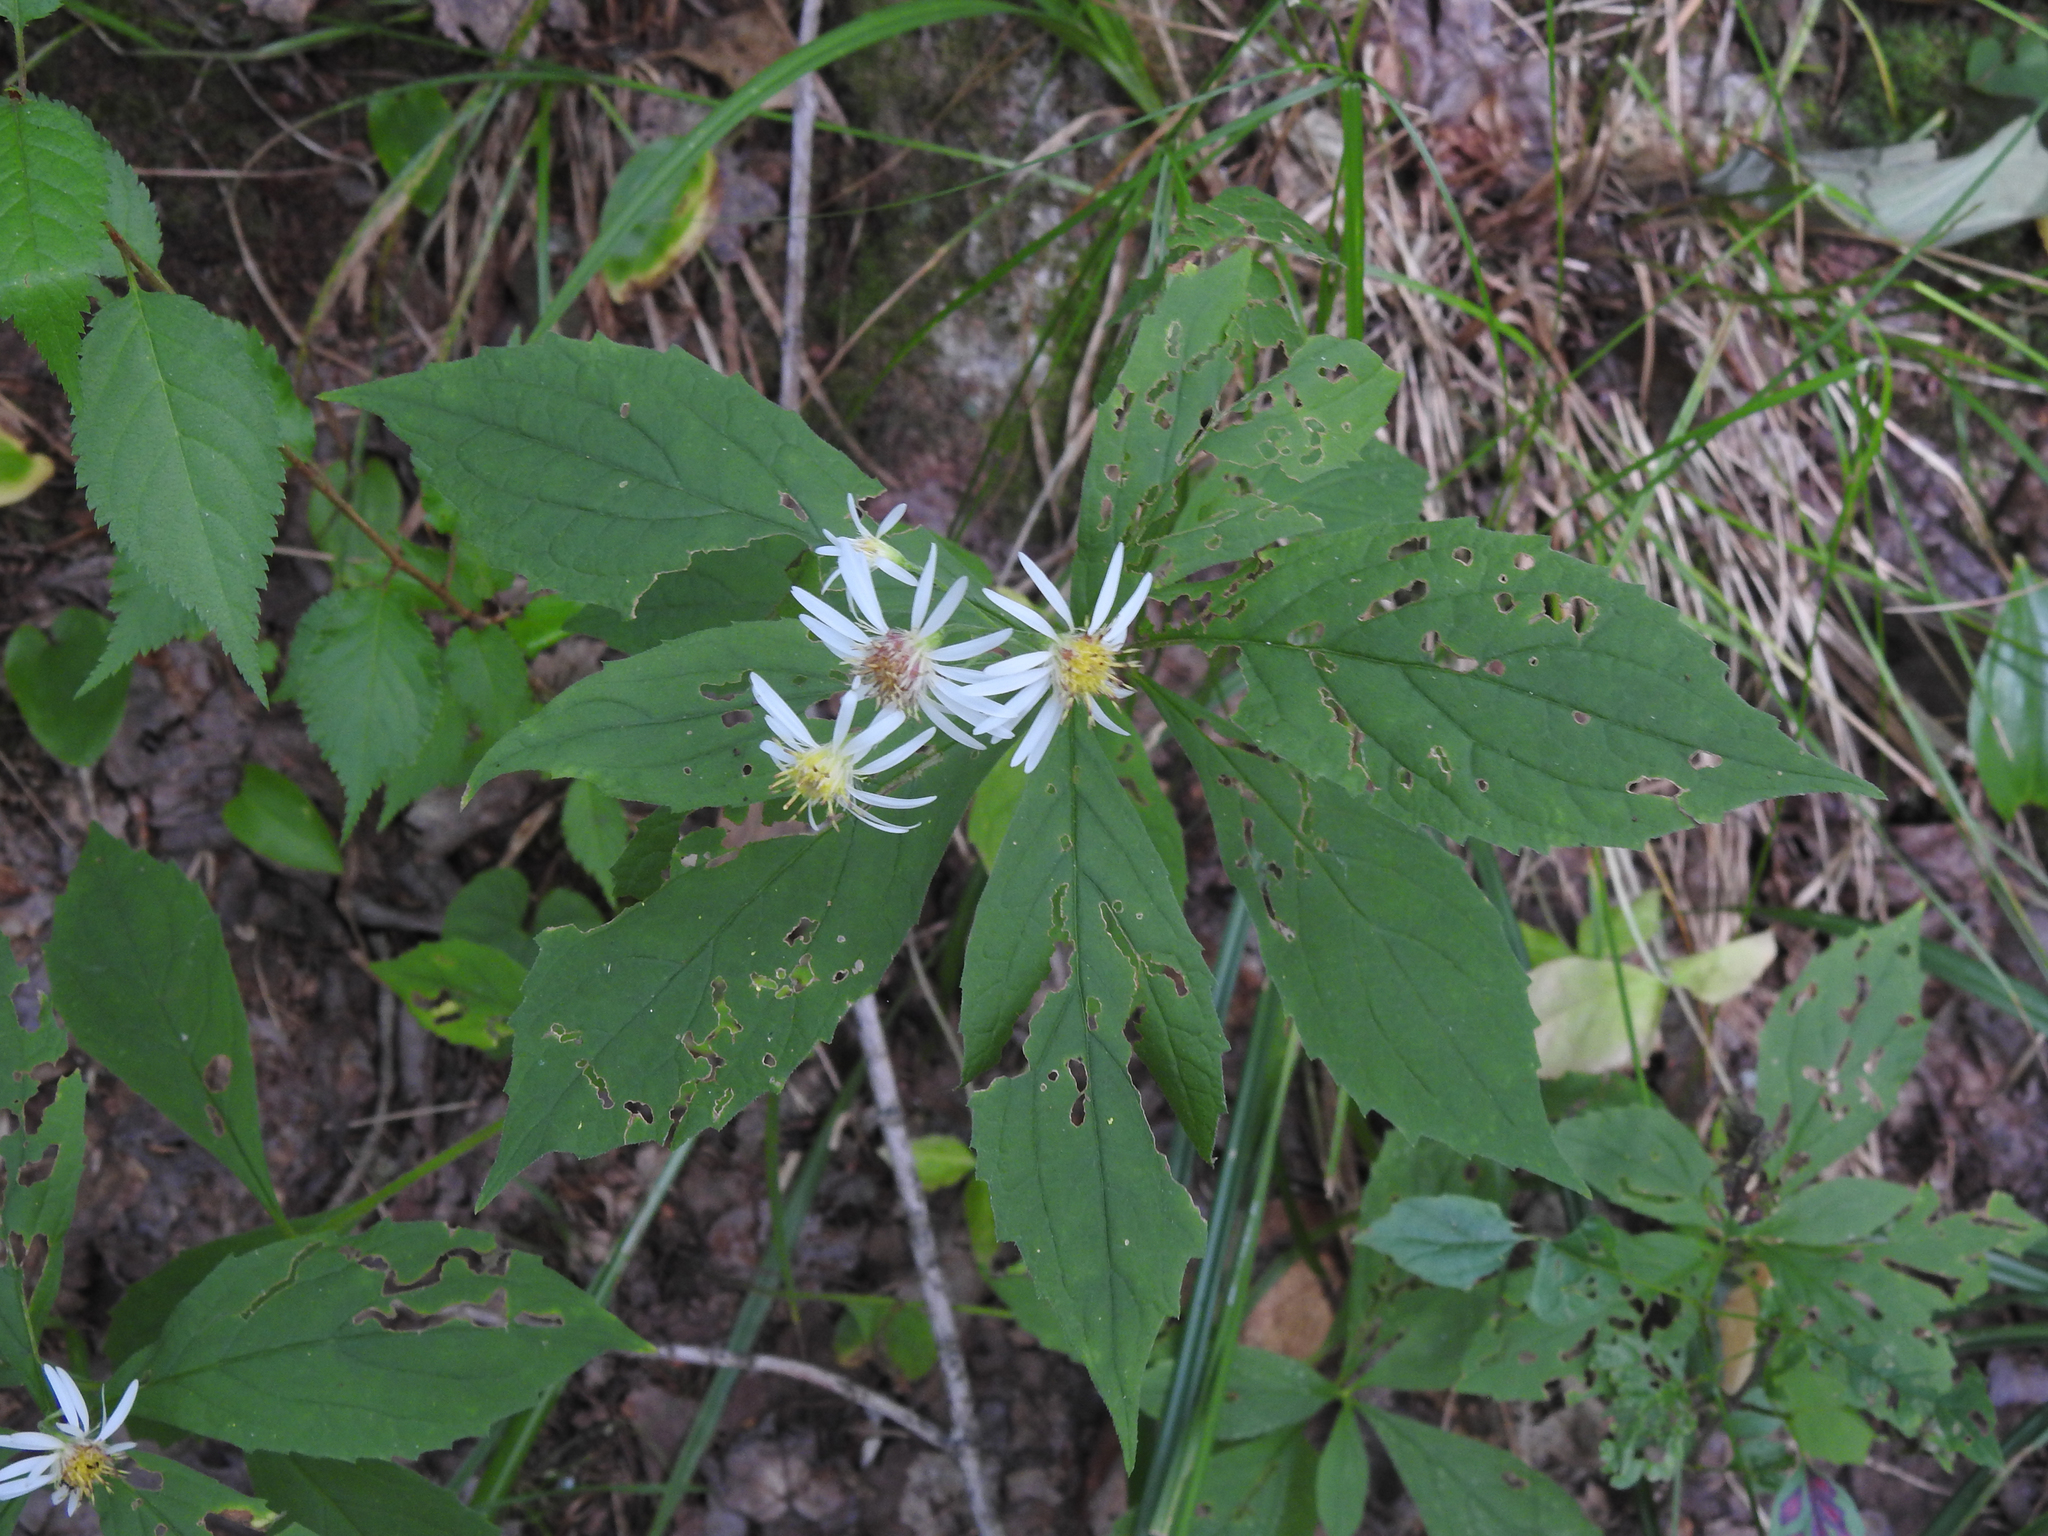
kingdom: Plantae
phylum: Tracheophyta
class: Magnoliopsida
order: Asterales
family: Asteraceae
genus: Oclemena
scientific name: Oclemena acuminata
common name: Mountain aster
